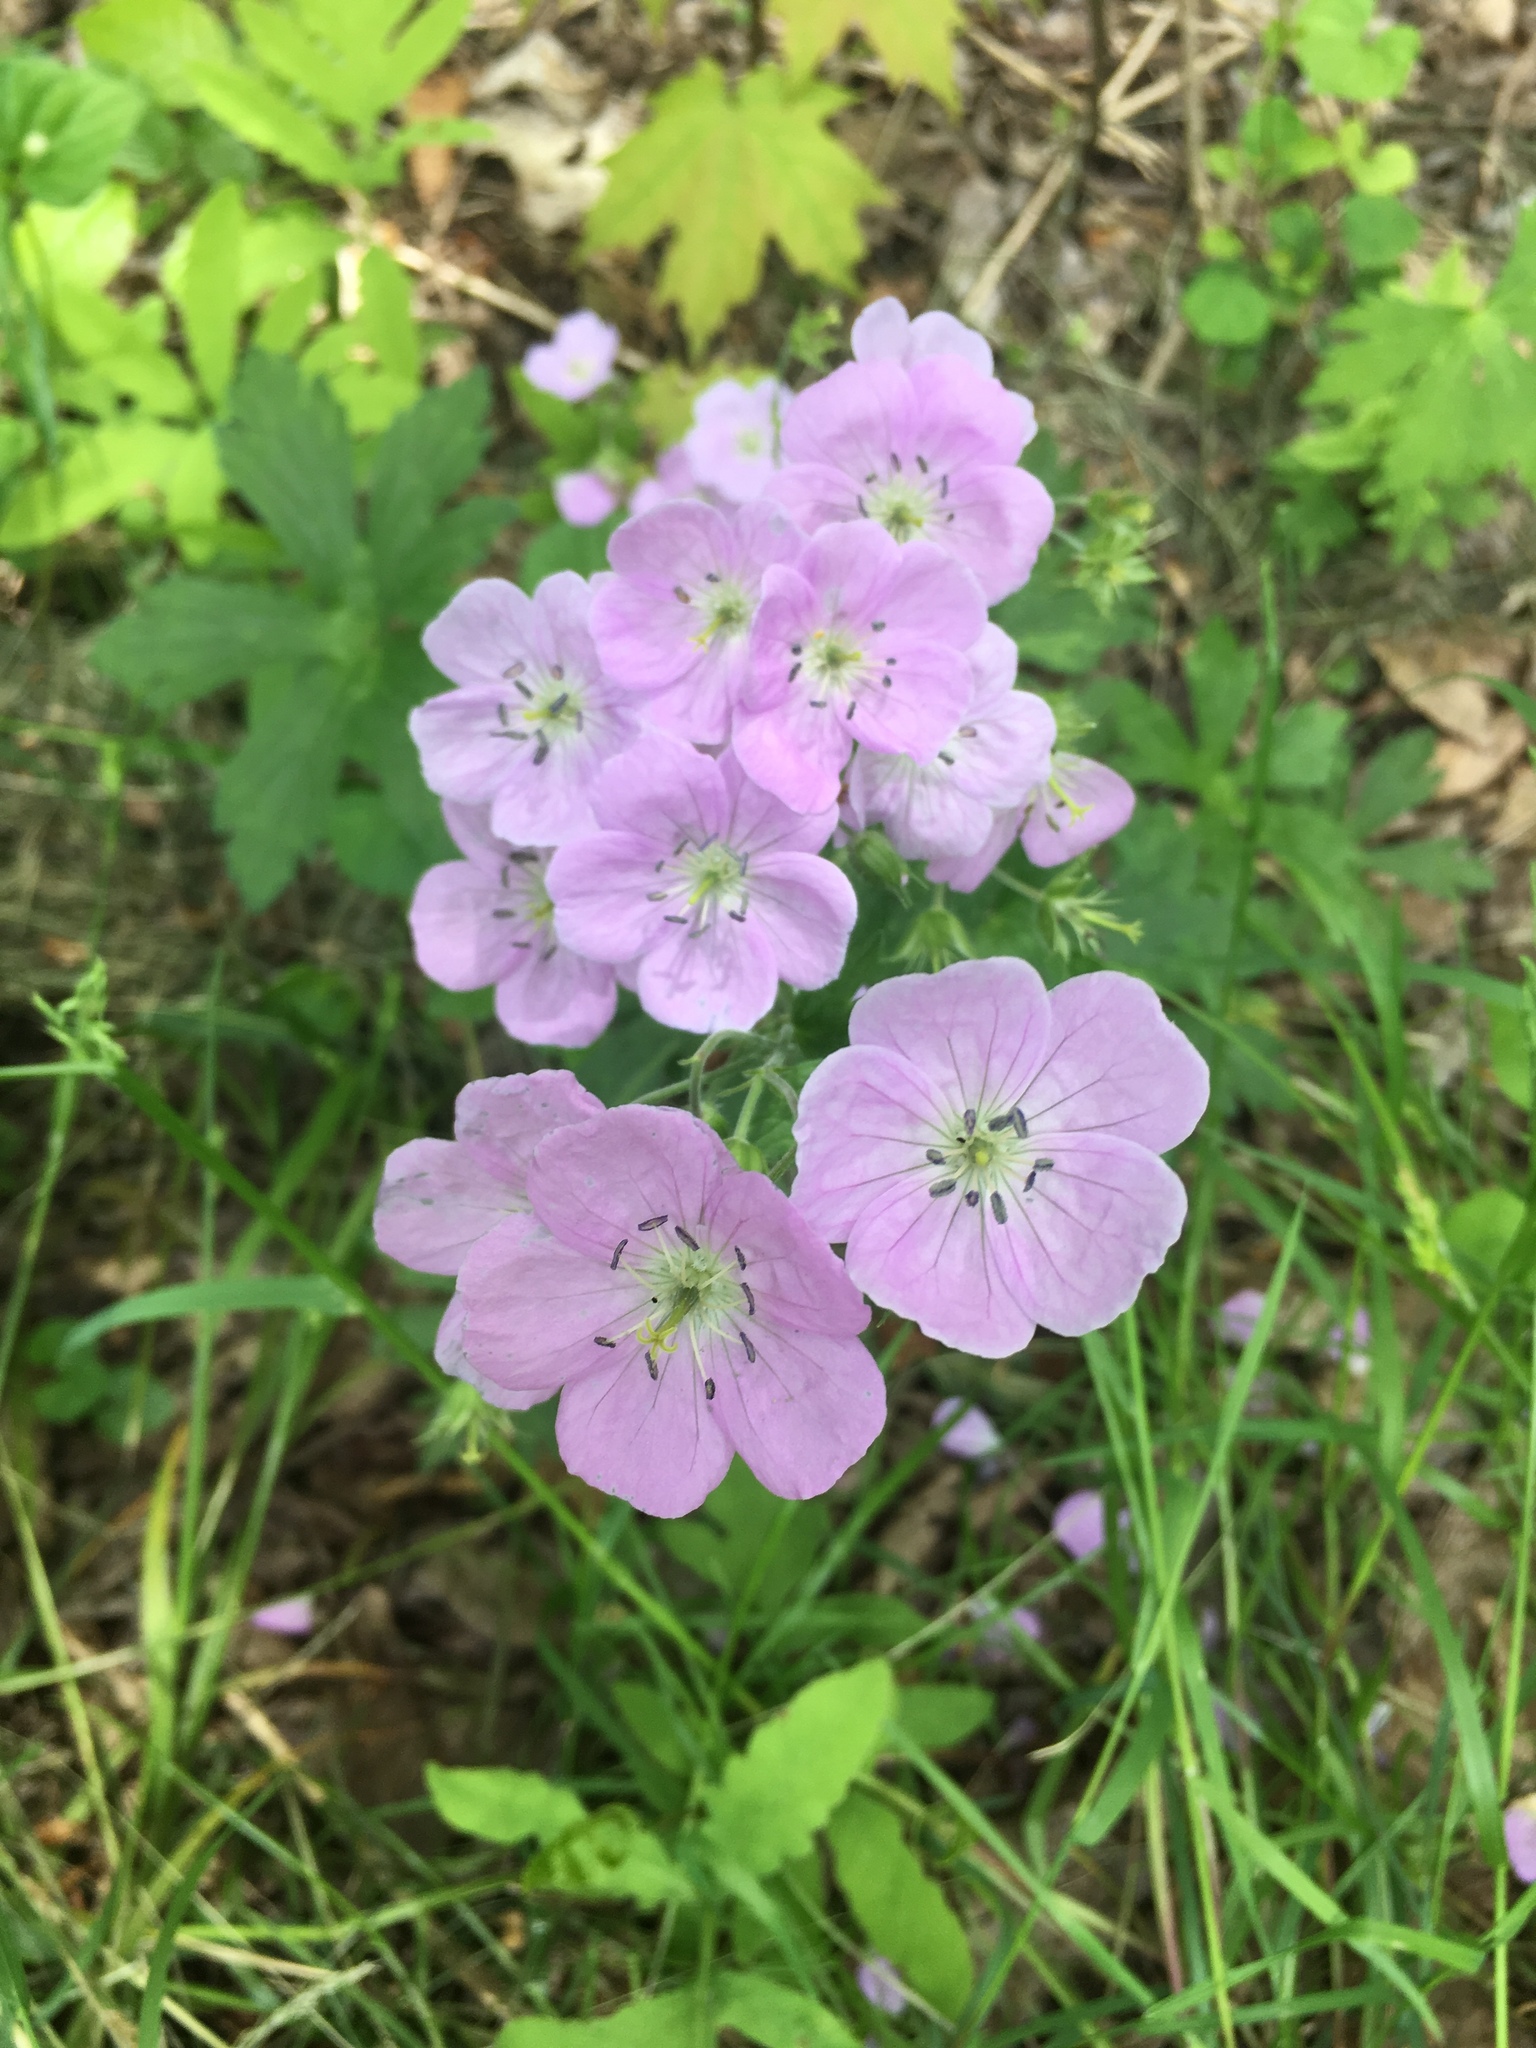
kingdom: Plantae
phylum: Tracheophyta
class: Magnoliopsida
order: Geraniales
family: Geraniaceae
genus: Geranium
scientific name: Geranium maculatum
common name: Spotted geranium
